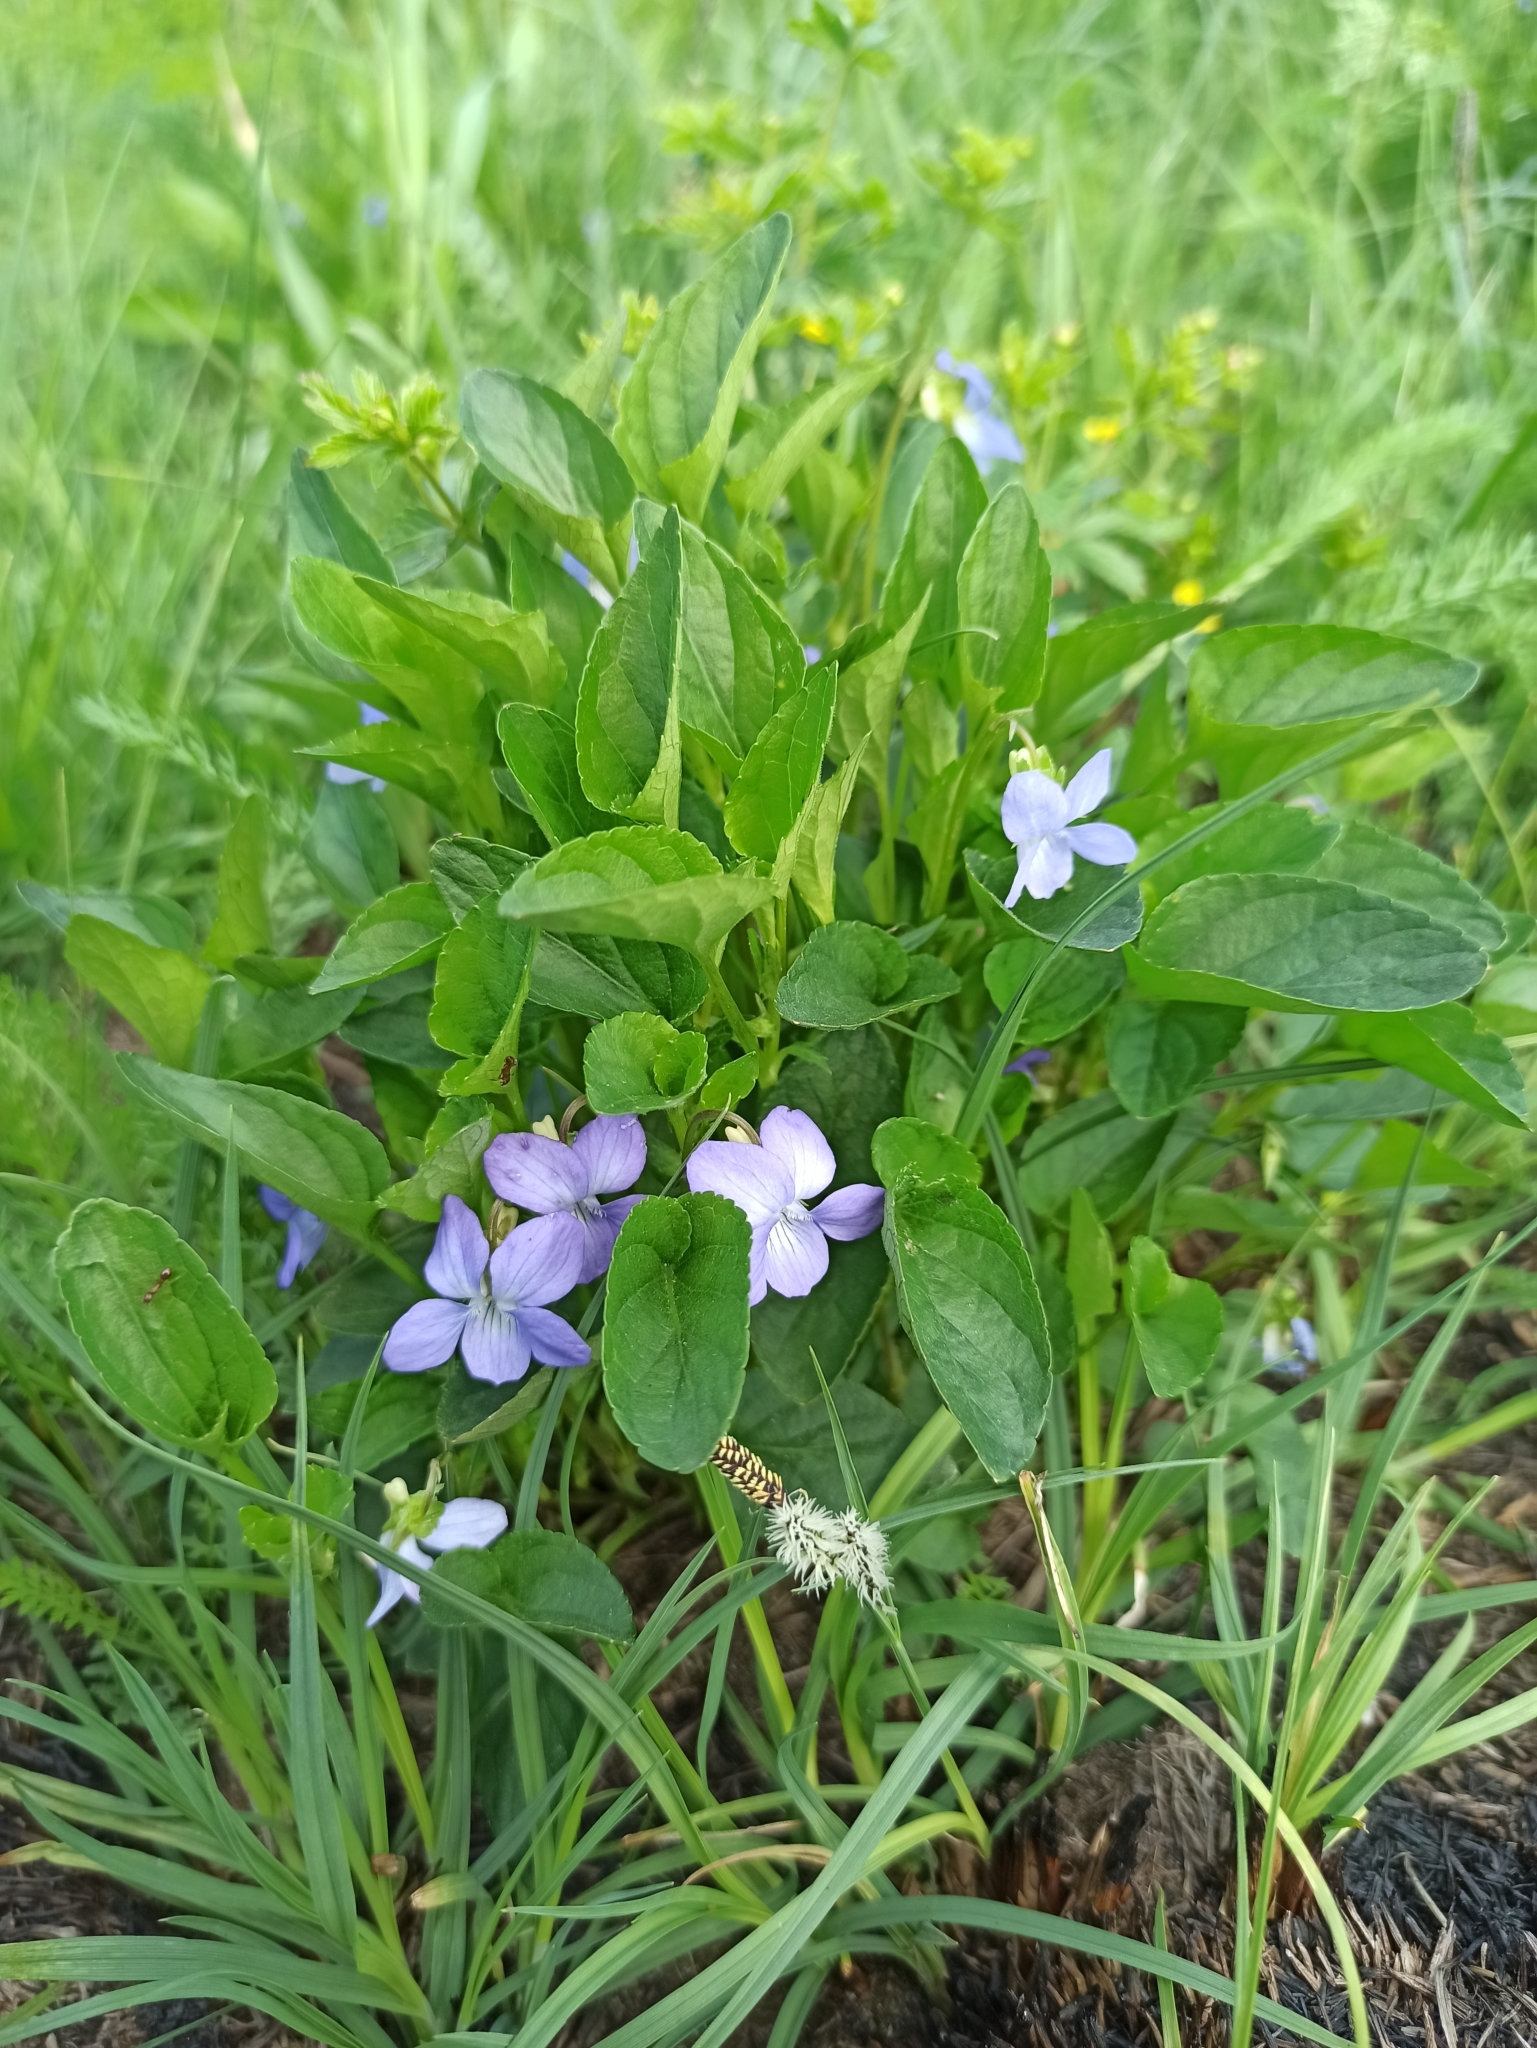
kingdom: Plantae
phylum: Tracheophyta
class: Magnoliopsida
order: Malpighiales
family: Violaceae
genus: Viola
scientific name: Viola canina
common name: Heath dog-violet
